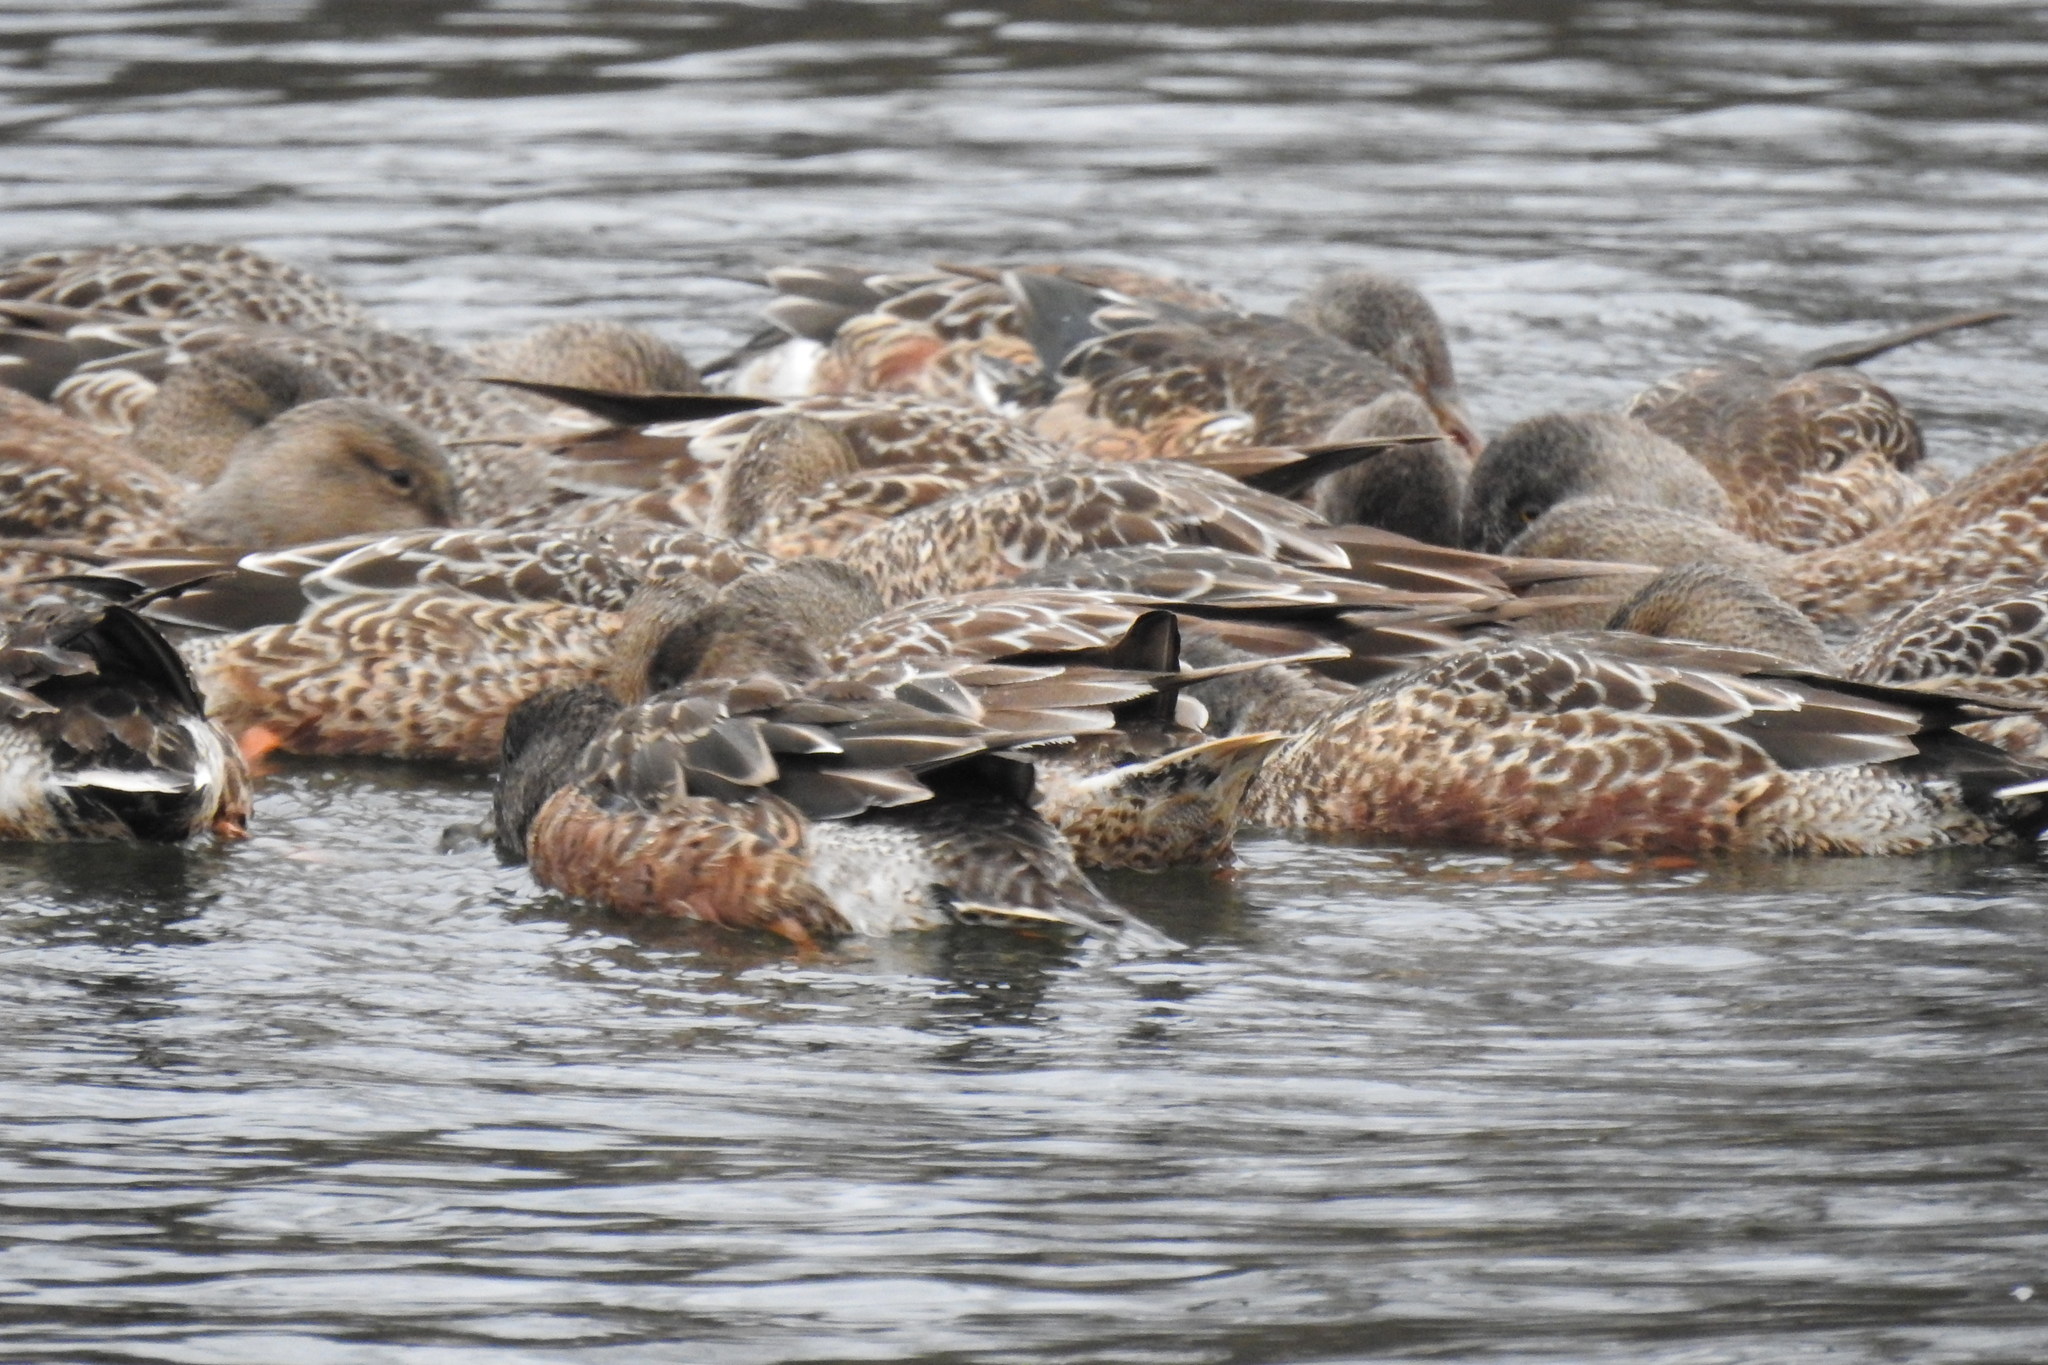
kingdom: Animalia
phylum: Chordata
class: Aves
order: Anseriformes
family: Anatidae
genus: Spatula
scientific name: Spatula clypeata
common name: Northern shoveler
